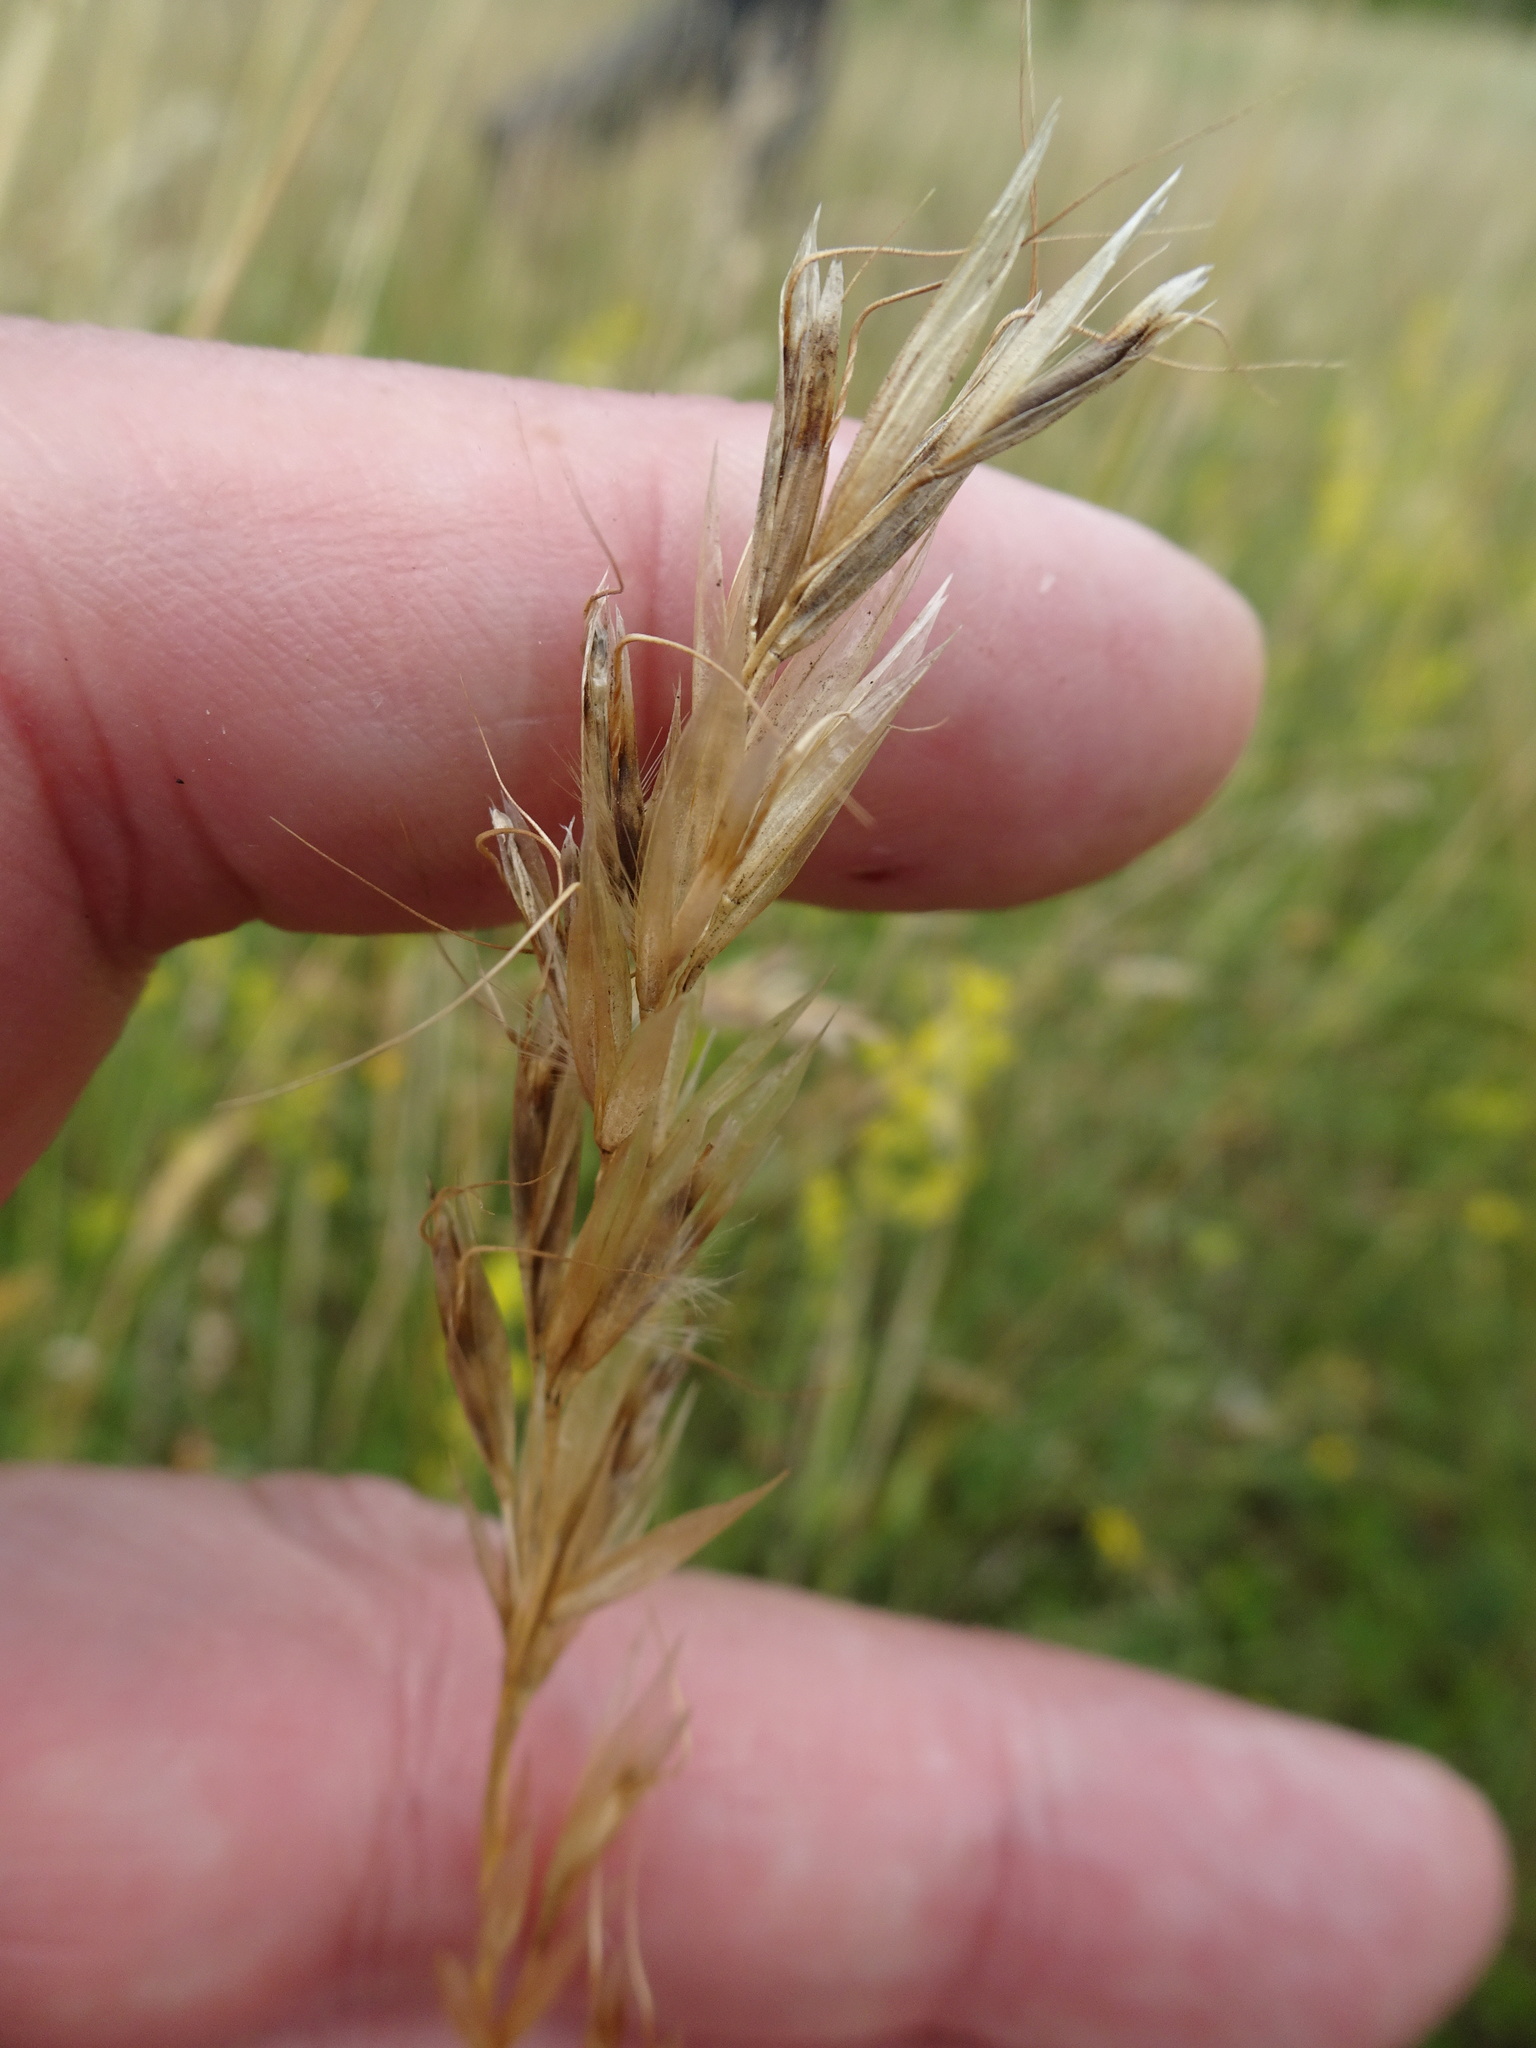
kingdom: Plantae
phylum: Tracheophyta
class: Liliopsida
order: Poales
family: Poaceae
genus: Avenula
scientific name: Avenula pubescens
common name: Downy alpine oatgrass
